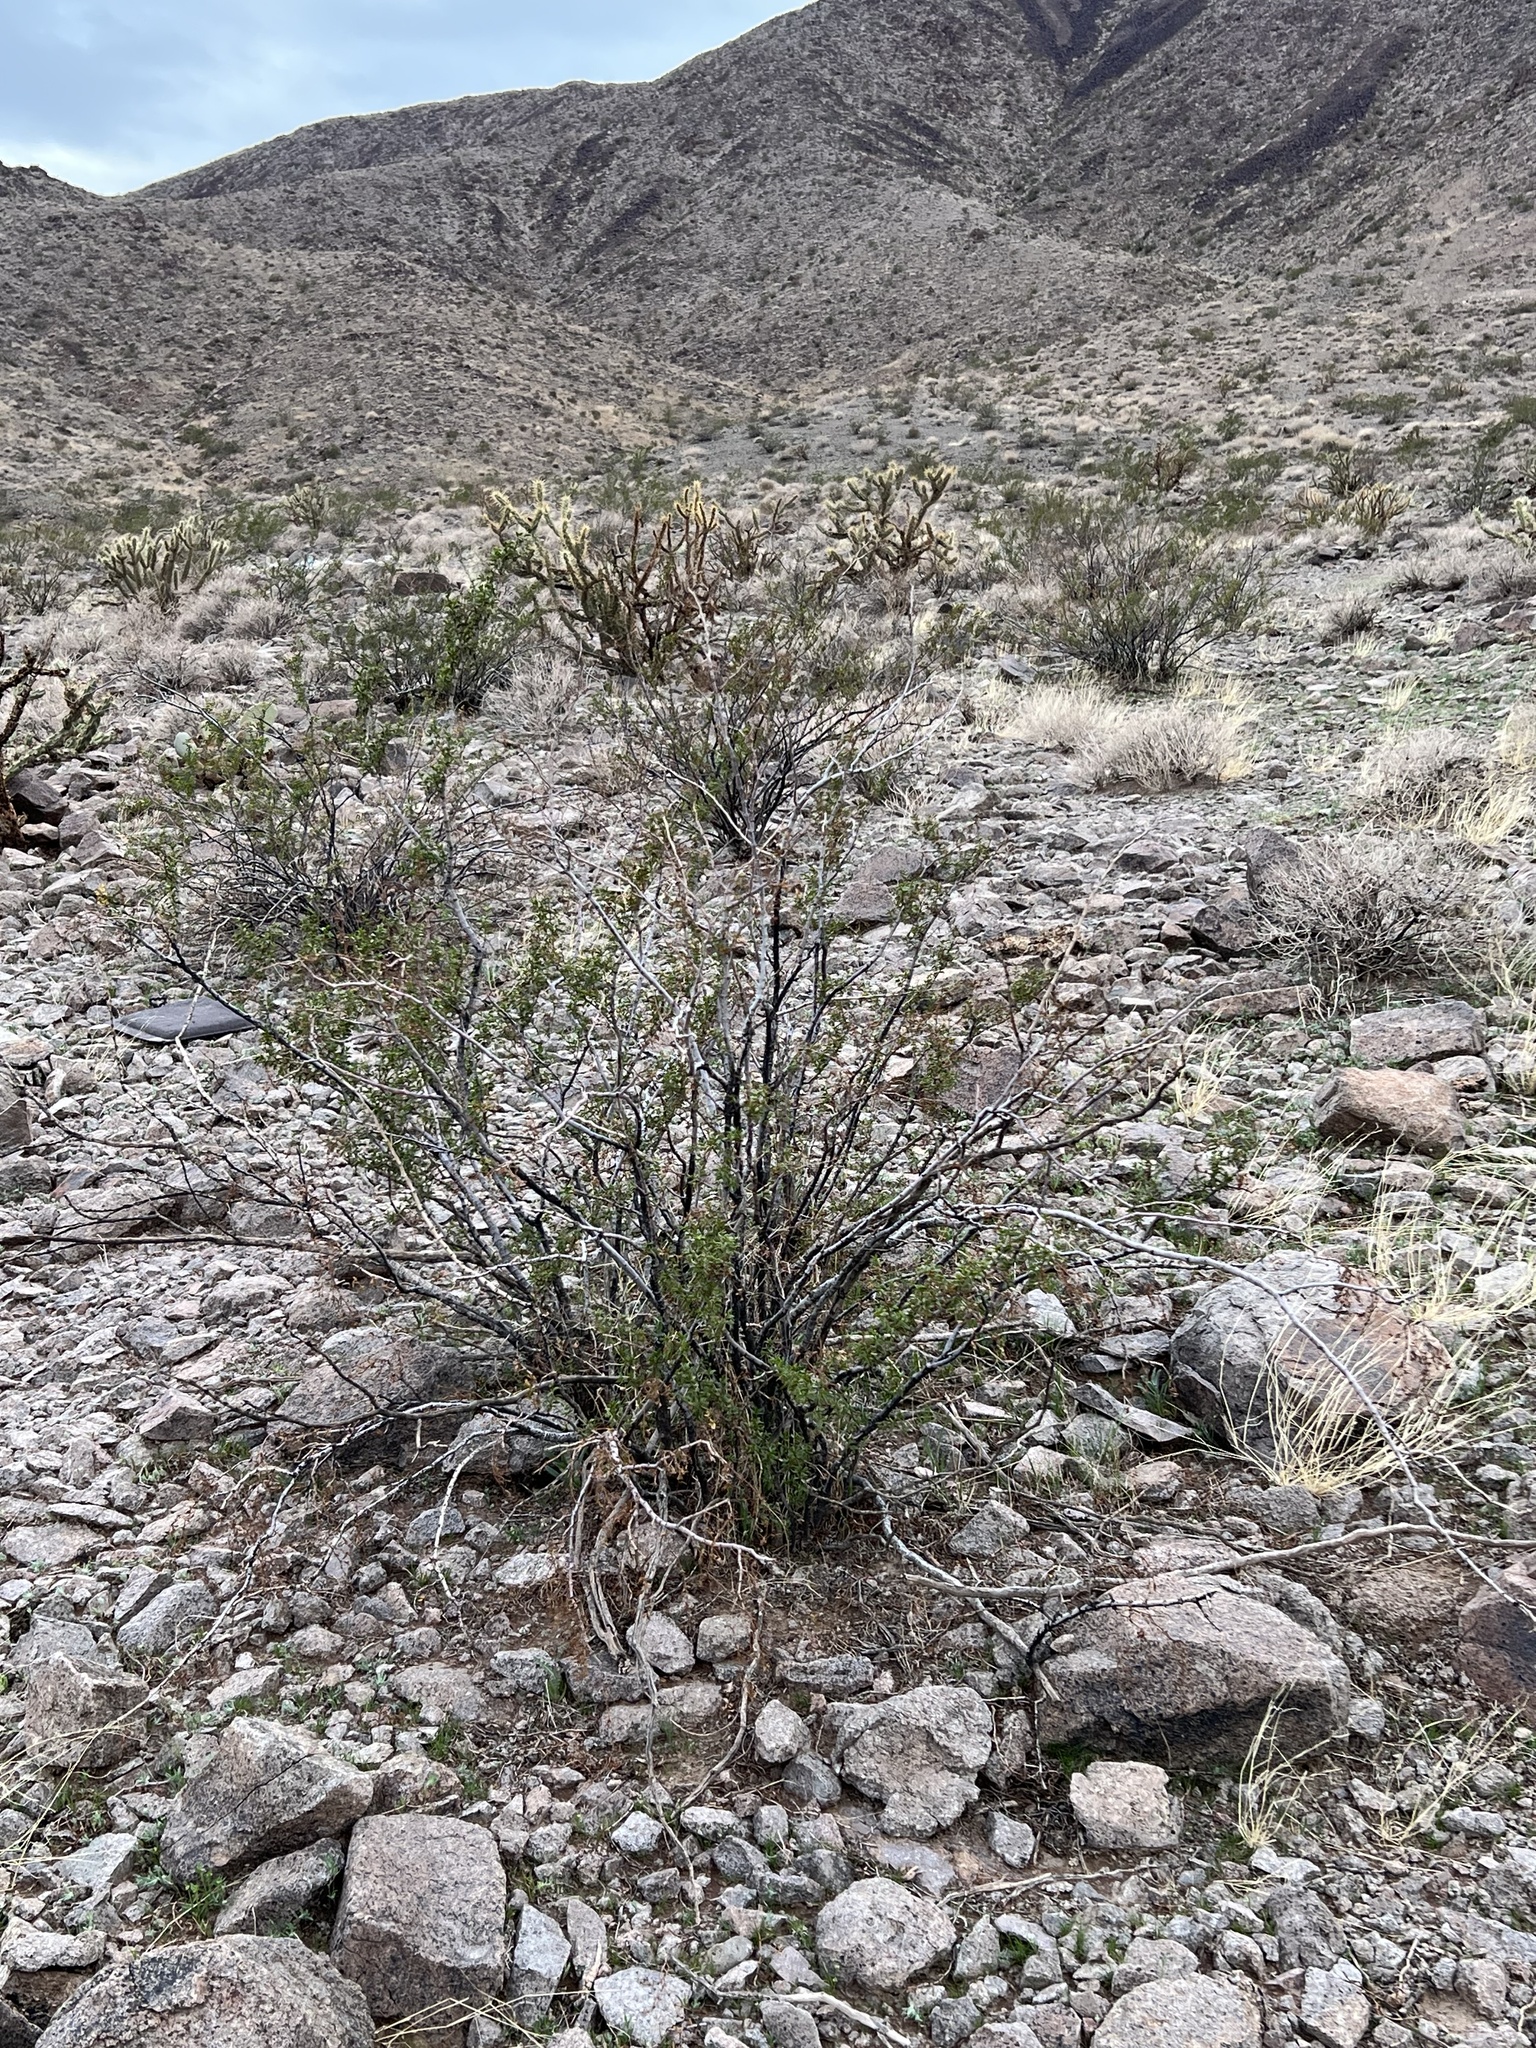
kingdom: Plantae
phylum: Tracheophyta
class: Magnoliopsida
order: Zygophyllales
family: Zygophyllaceae
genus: Larrea
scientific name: Larrea tridentata
